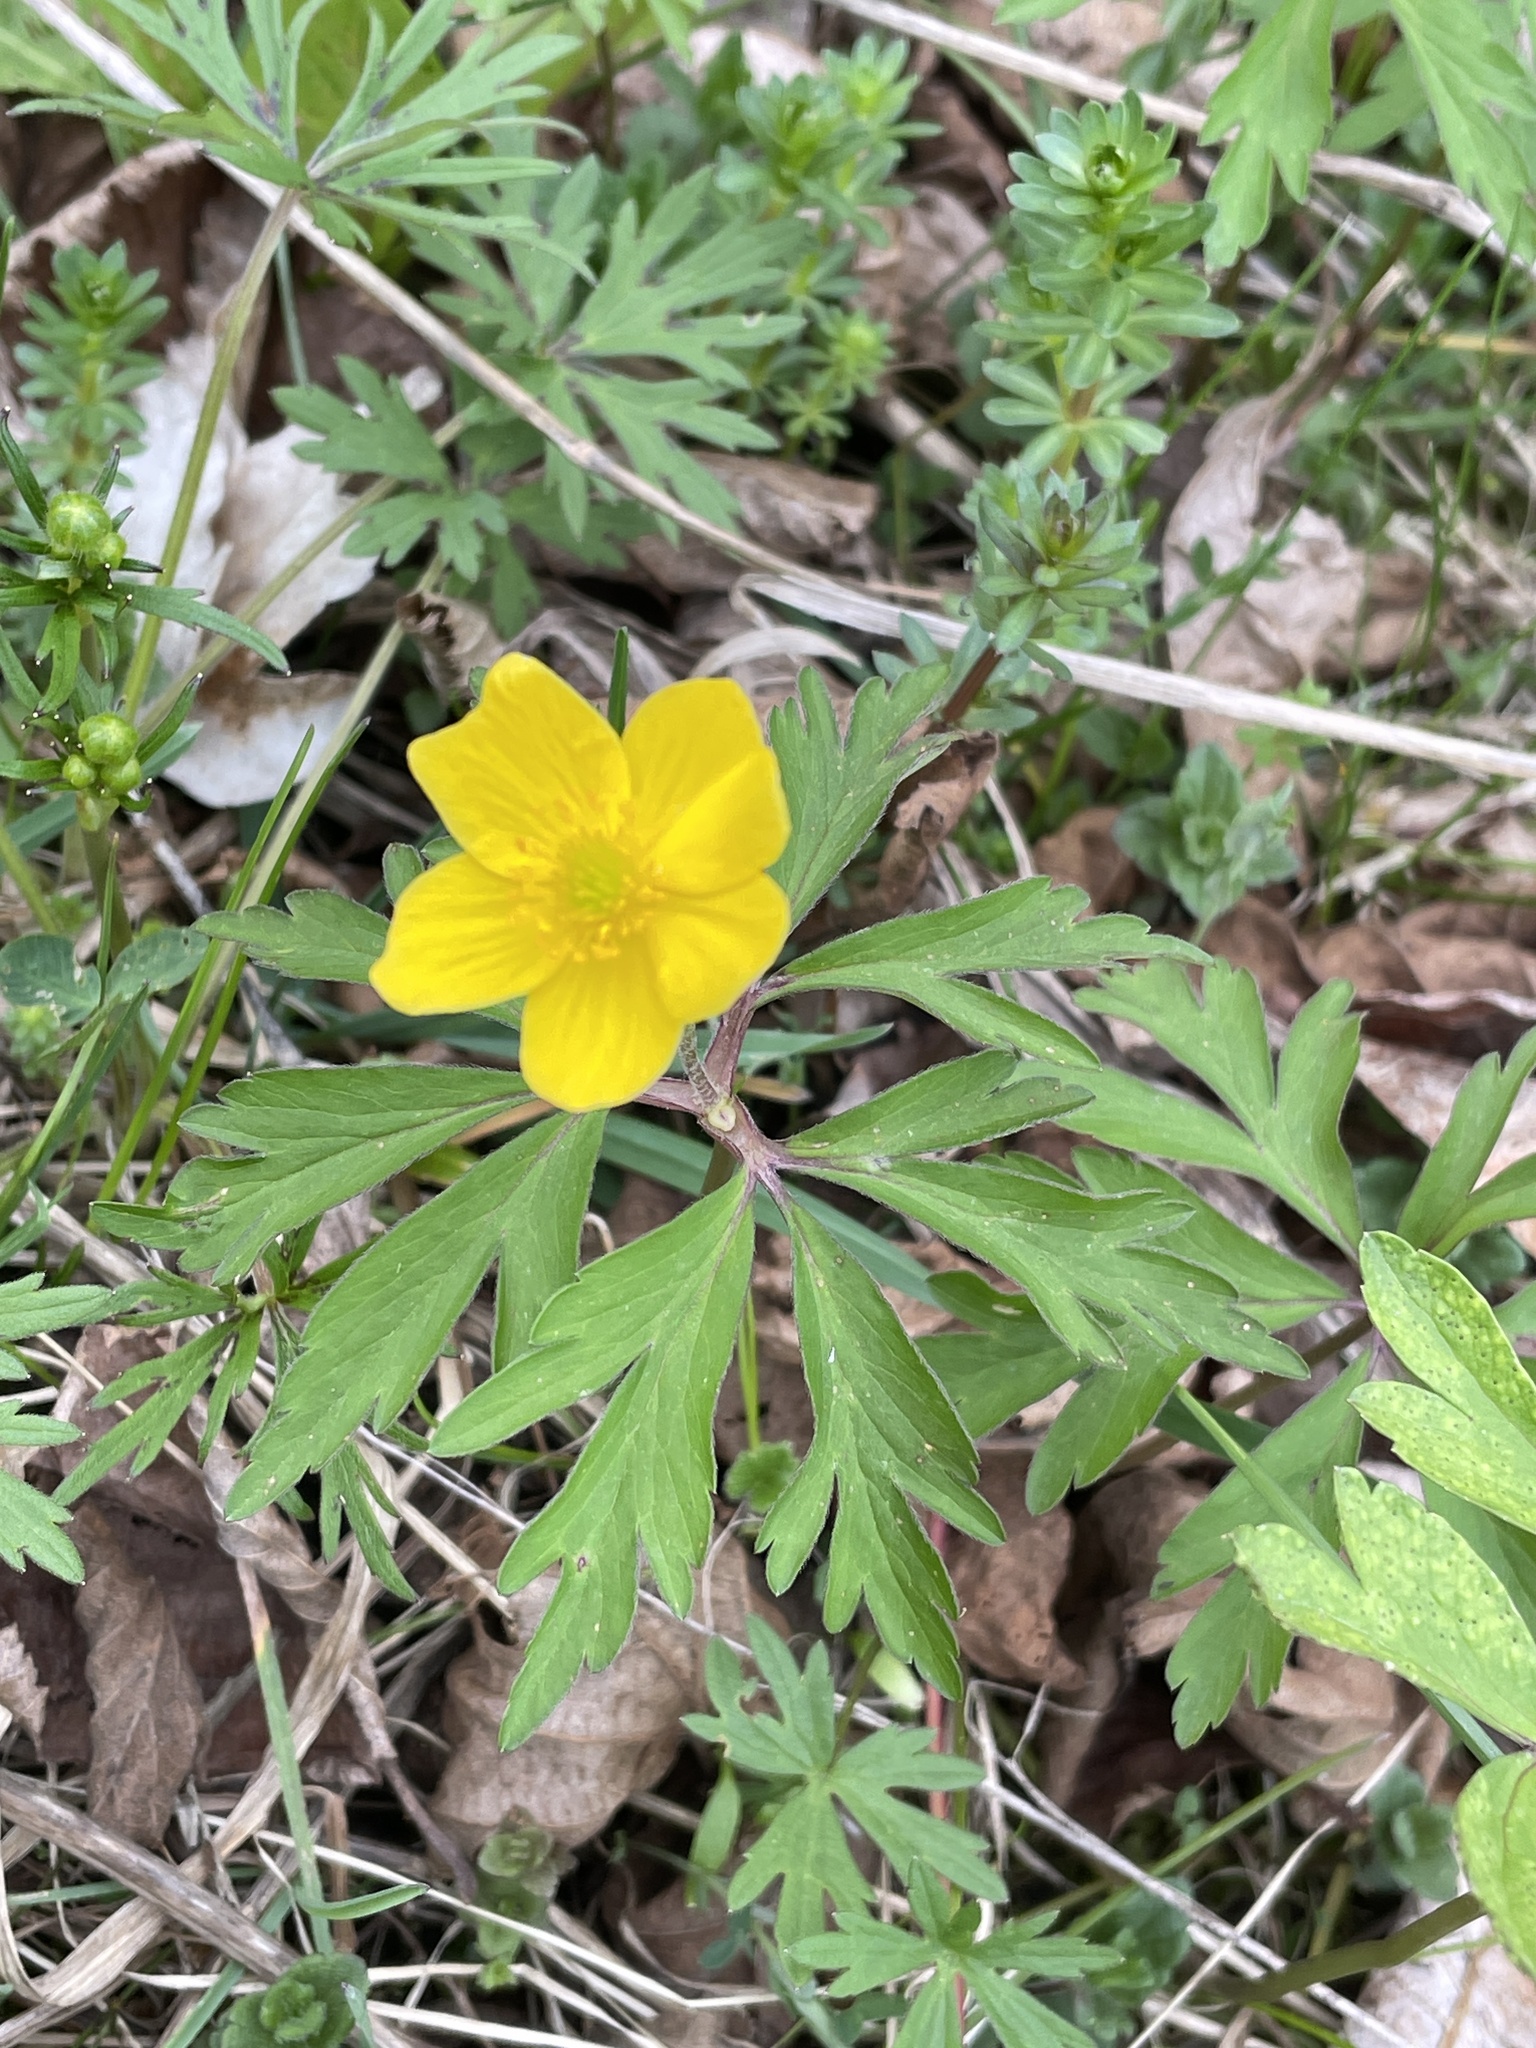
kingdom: Plantae
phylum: Tracheophyta
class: Magnoliopsida
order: Ranunculales
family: Ranunculaceae
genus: Anemone
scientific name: Anemone ranunculoides
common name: Yellow anemone
